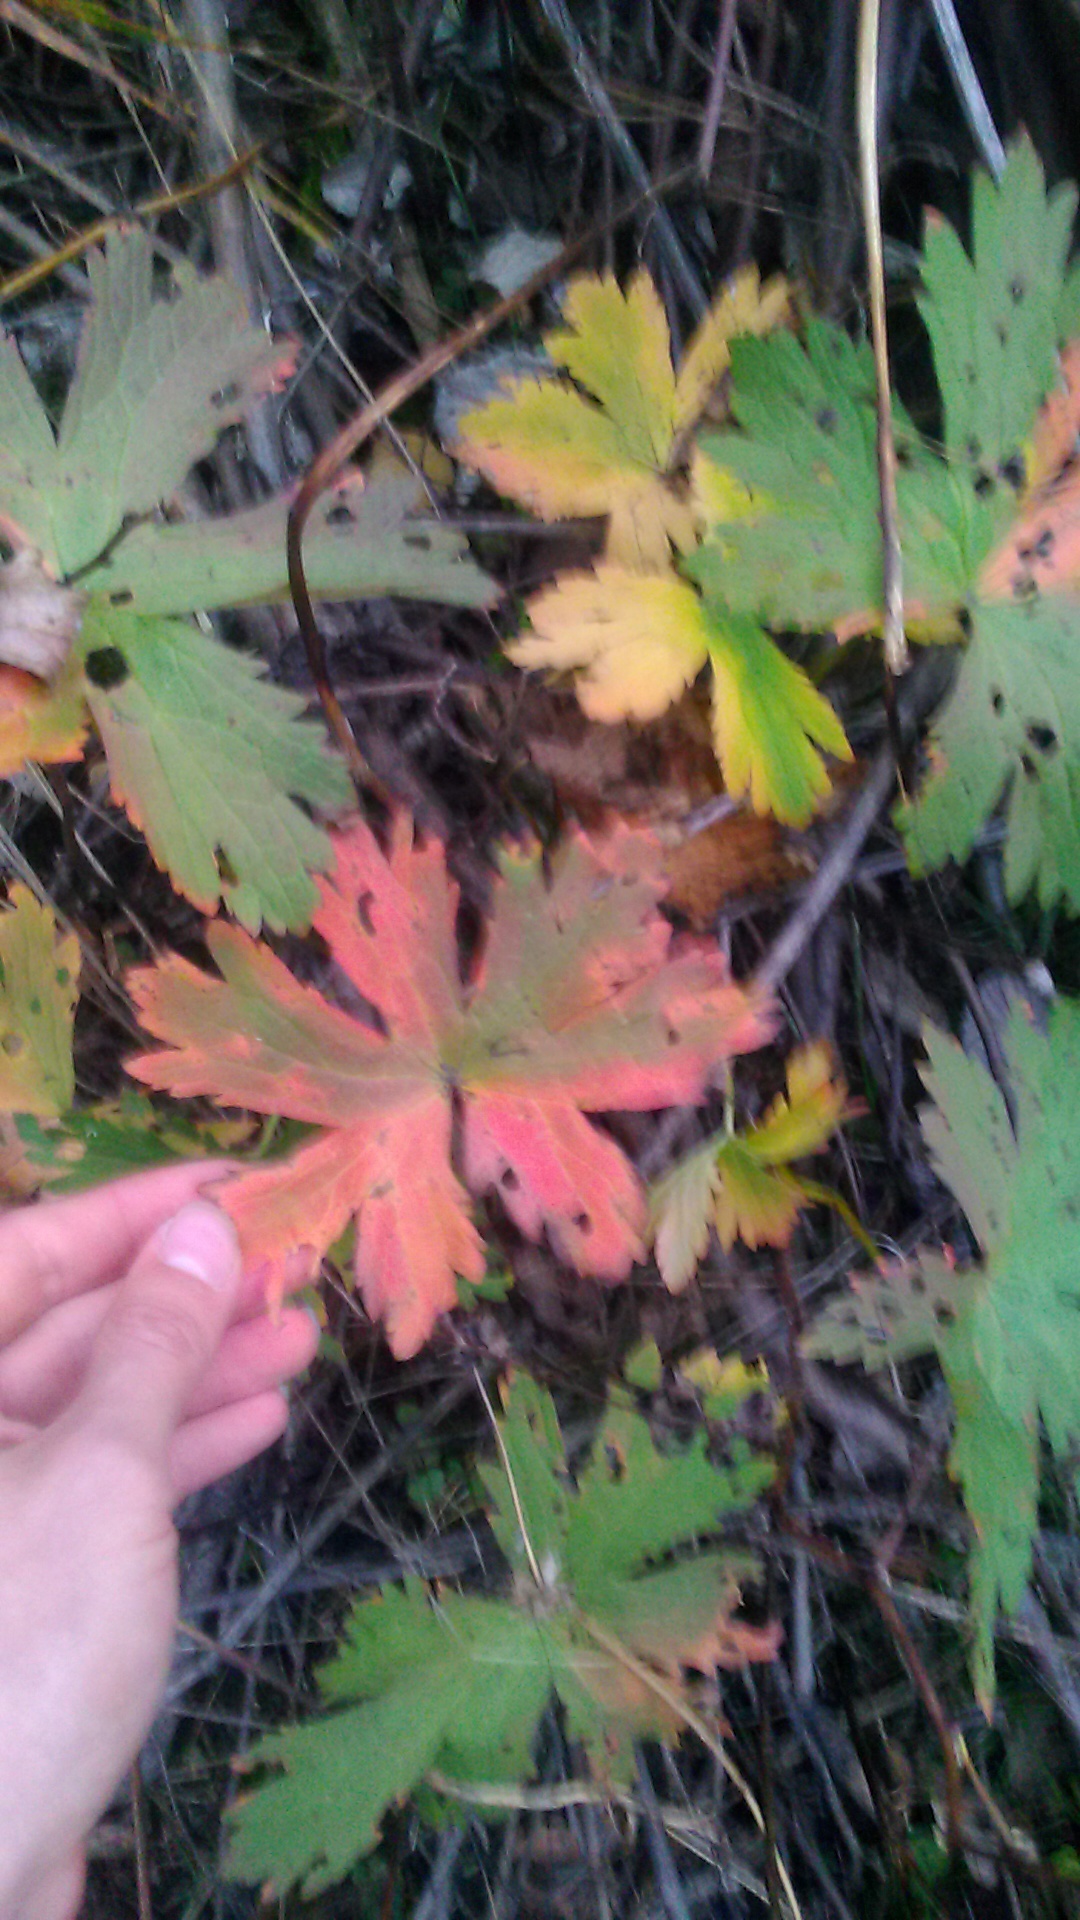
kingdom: Plantae
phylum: Tracheophyta
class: Magnoliopsida
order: Geraniales
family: Geraniaceae
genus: Geranium
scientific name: Geranium pratense
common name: Meadow crane's-bill
